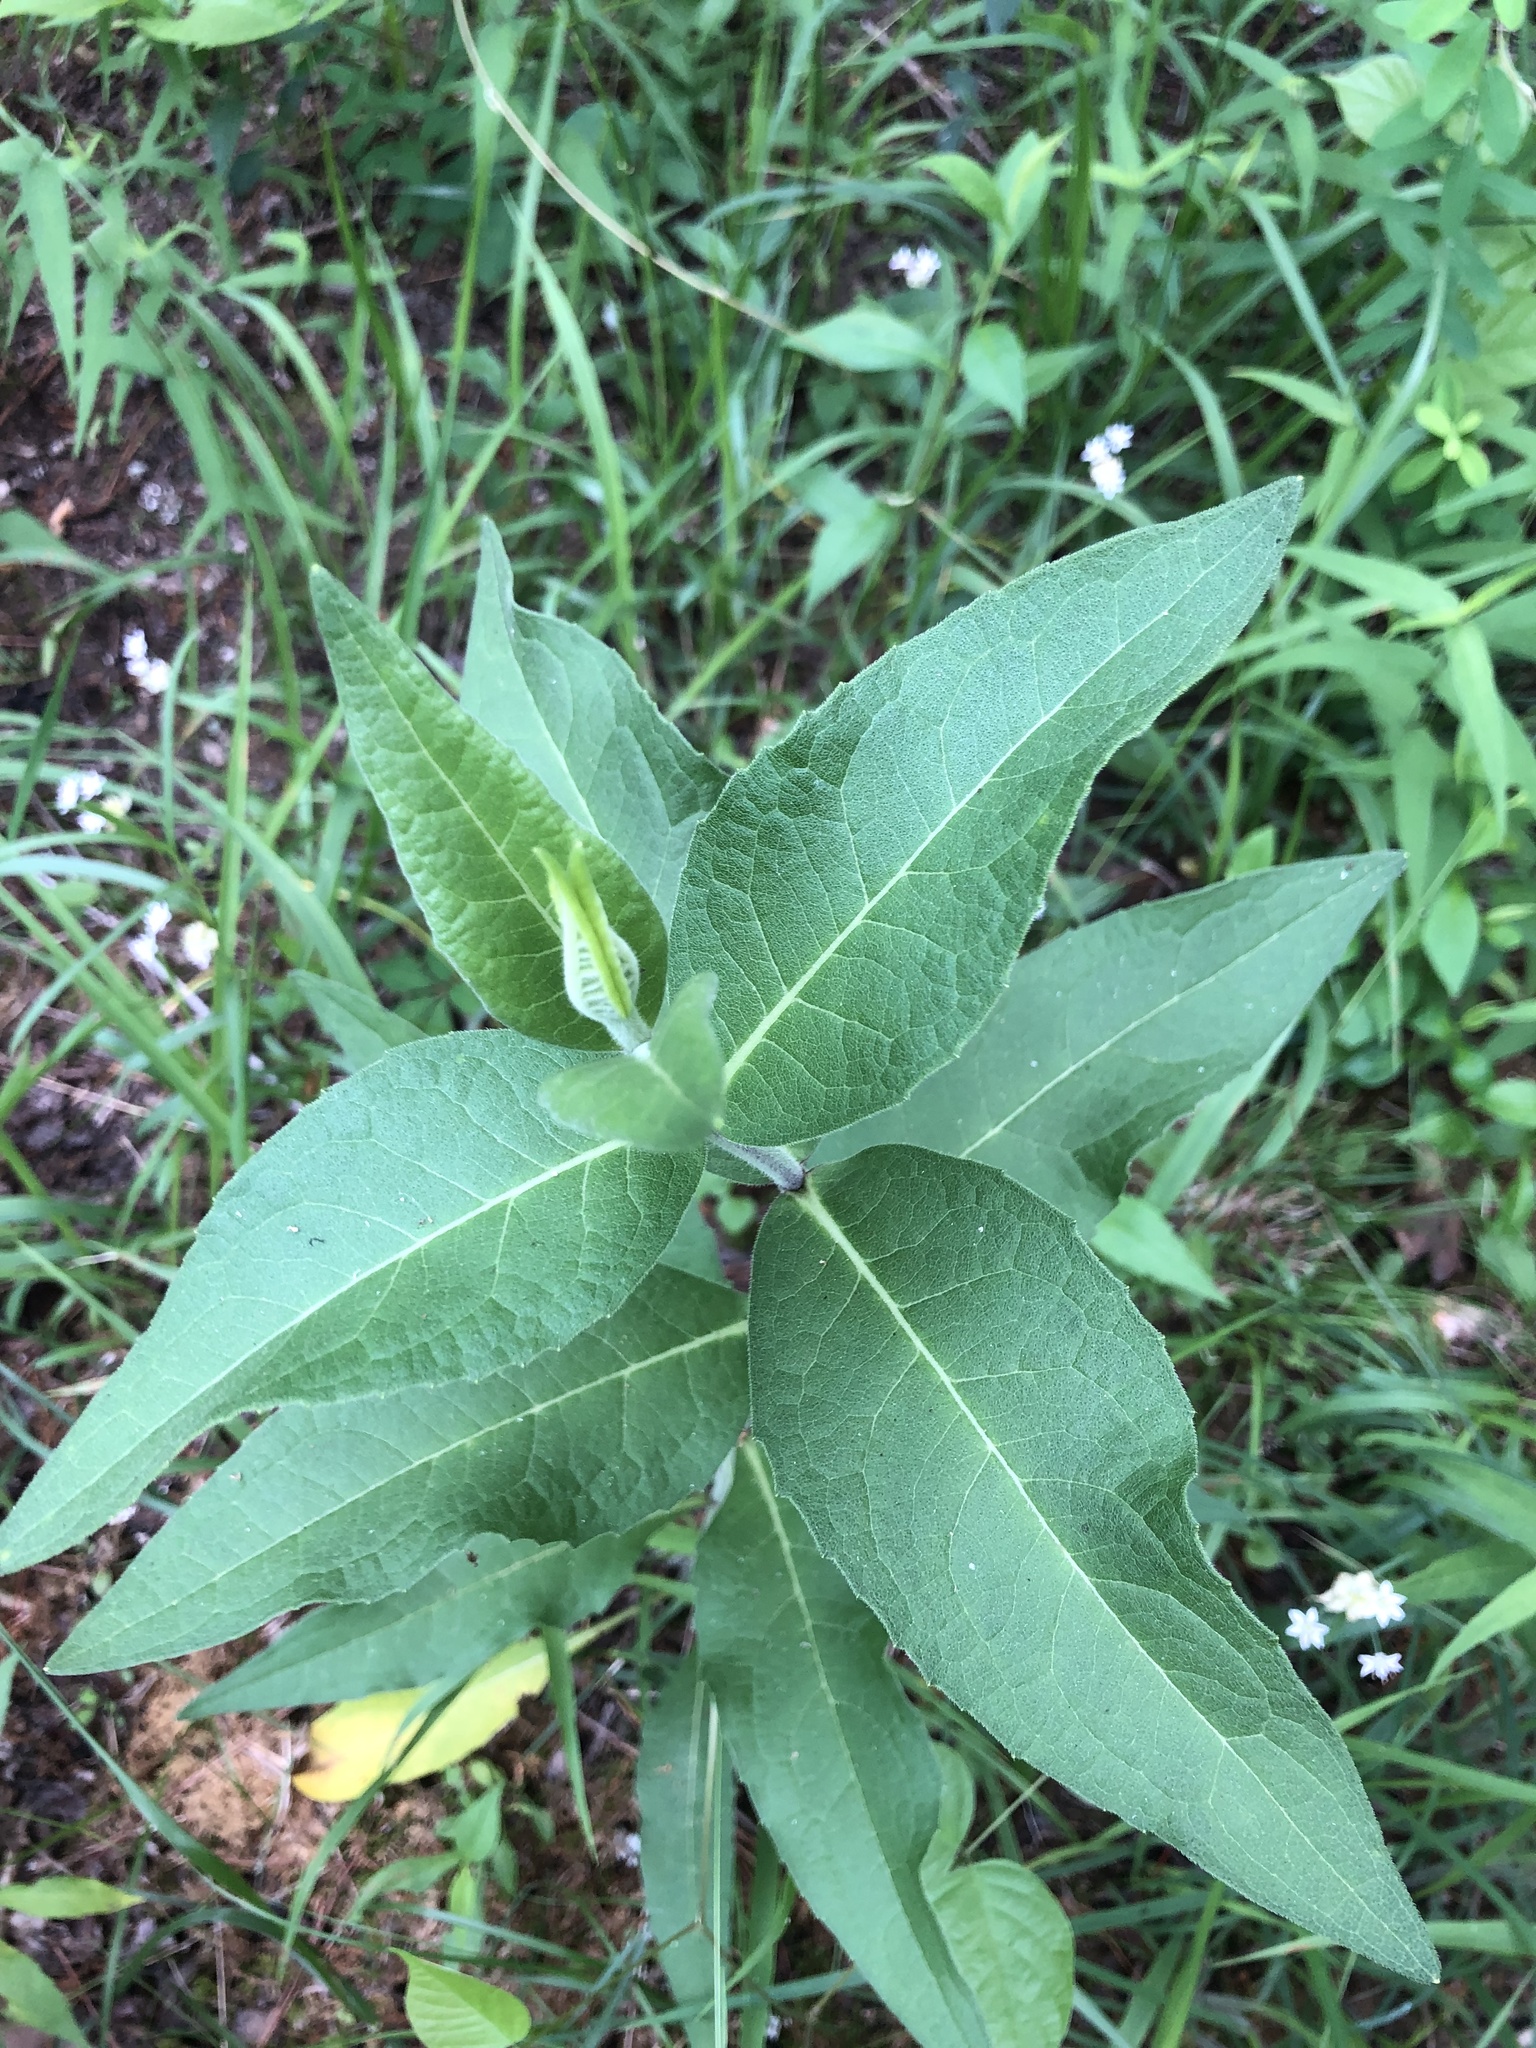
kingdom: Plantae
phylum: Tracheophyta
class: Magnoliopsida
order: Asterales
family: Asteraceae
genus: Silphium
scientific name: Silphium integrifolium
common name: Whole-leaf rosinweed
